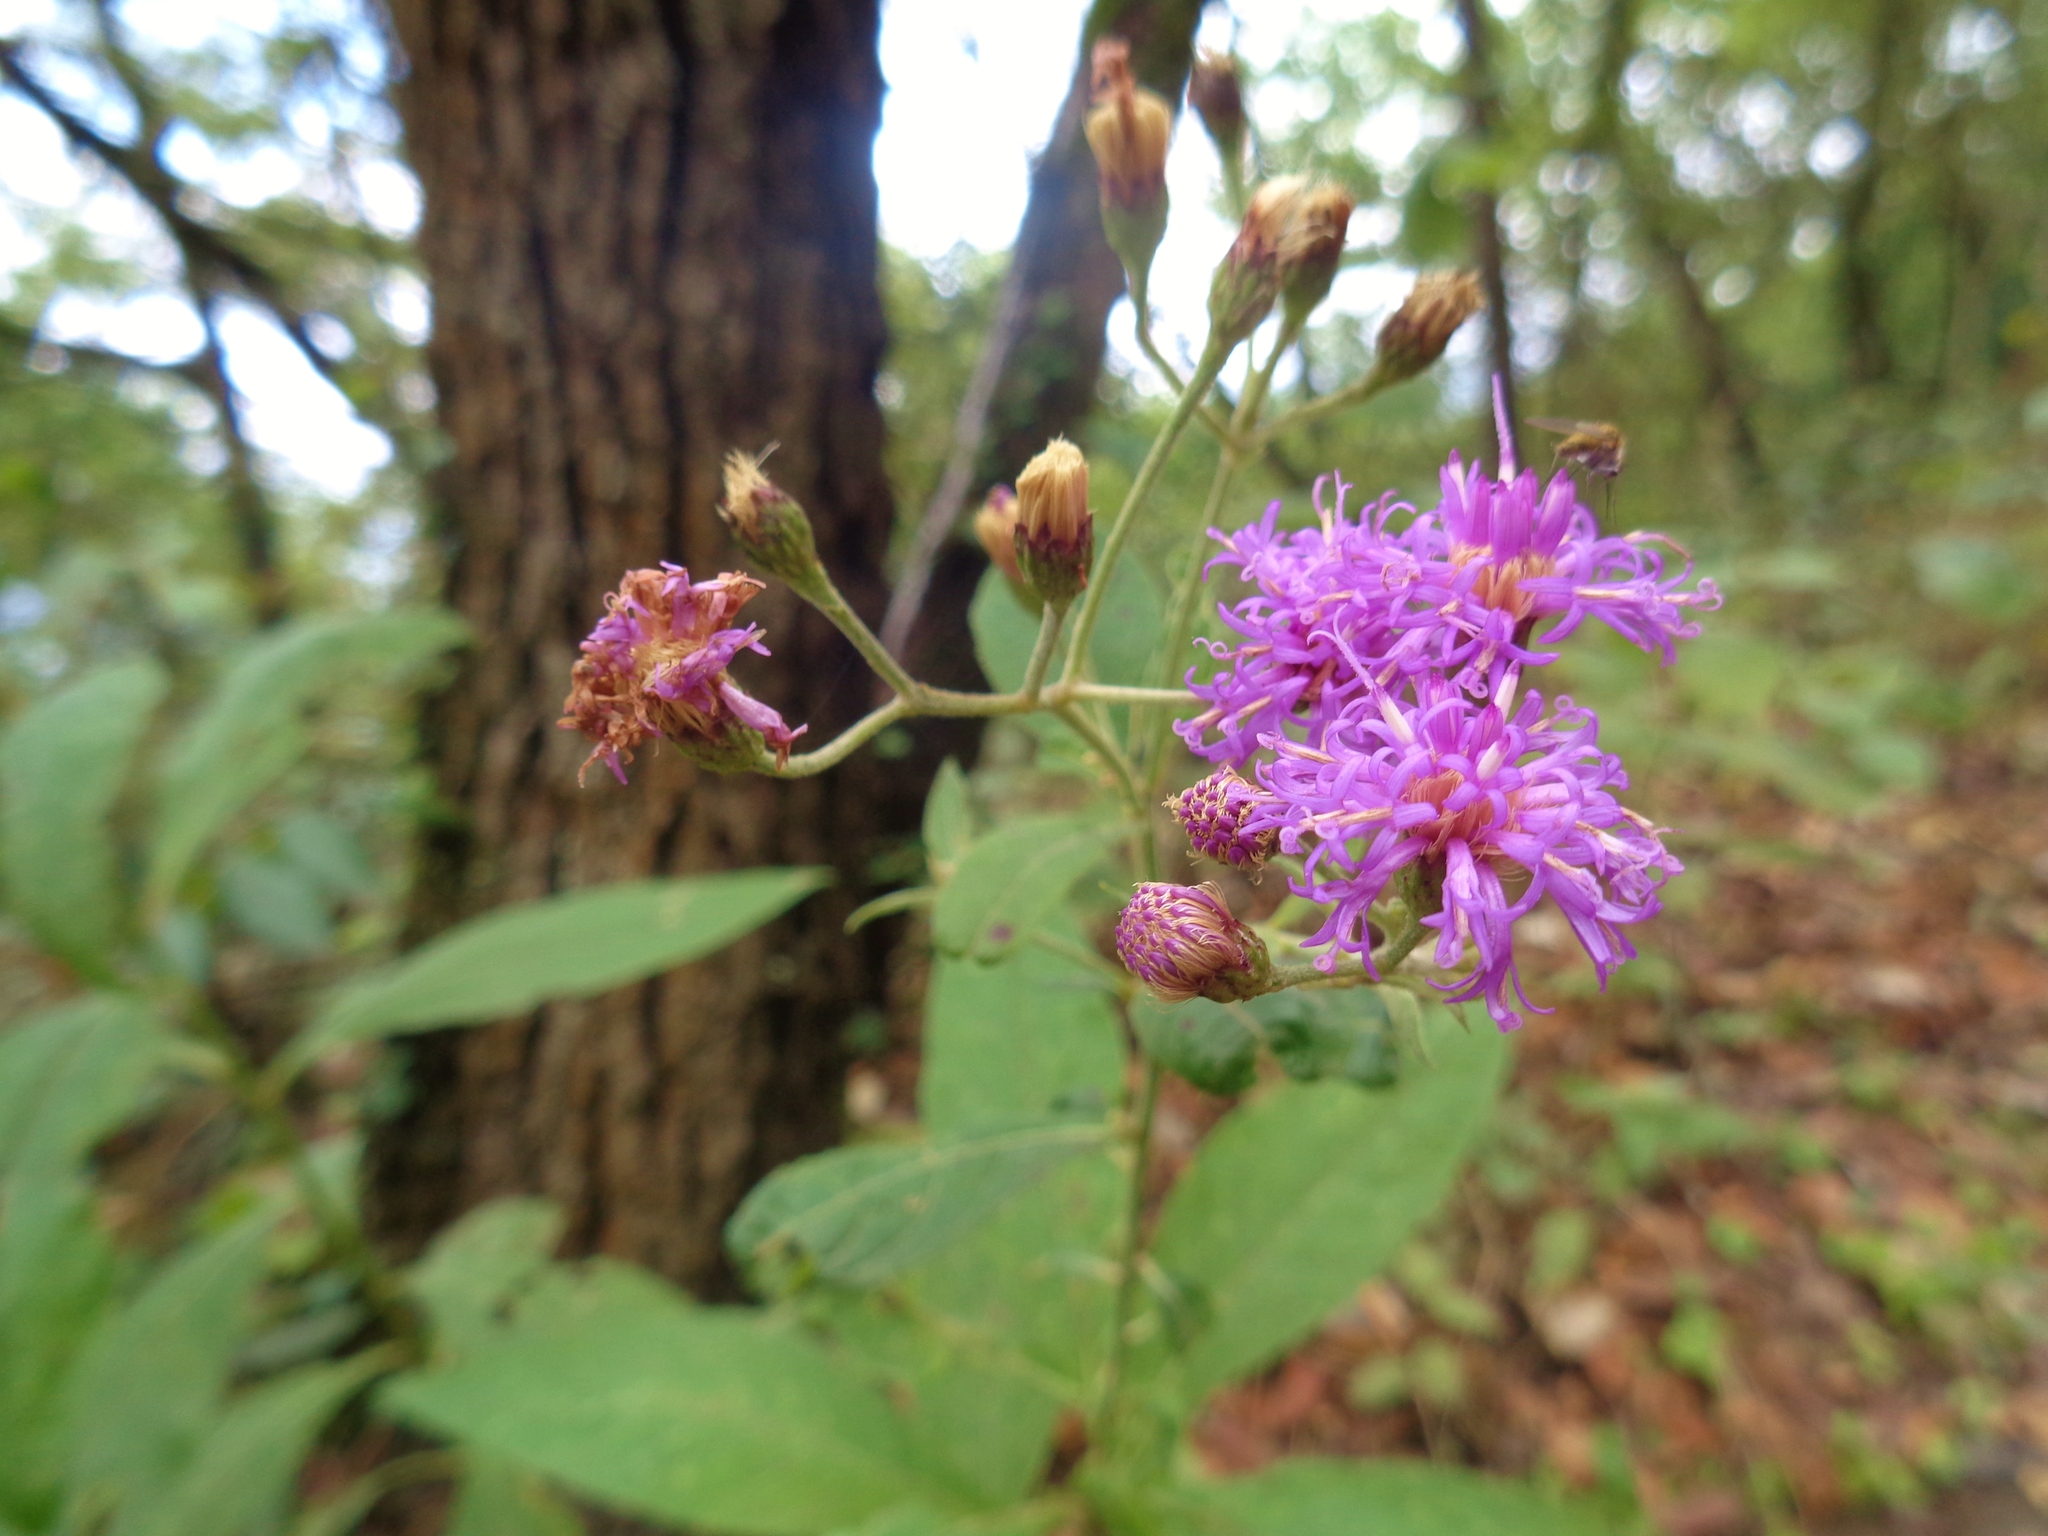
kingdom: Plantae
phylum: Tracheophyta
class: Magnoliopsida
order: Asterales
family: Asteraceae
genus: Vernonia
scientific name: Vernonia greggii
